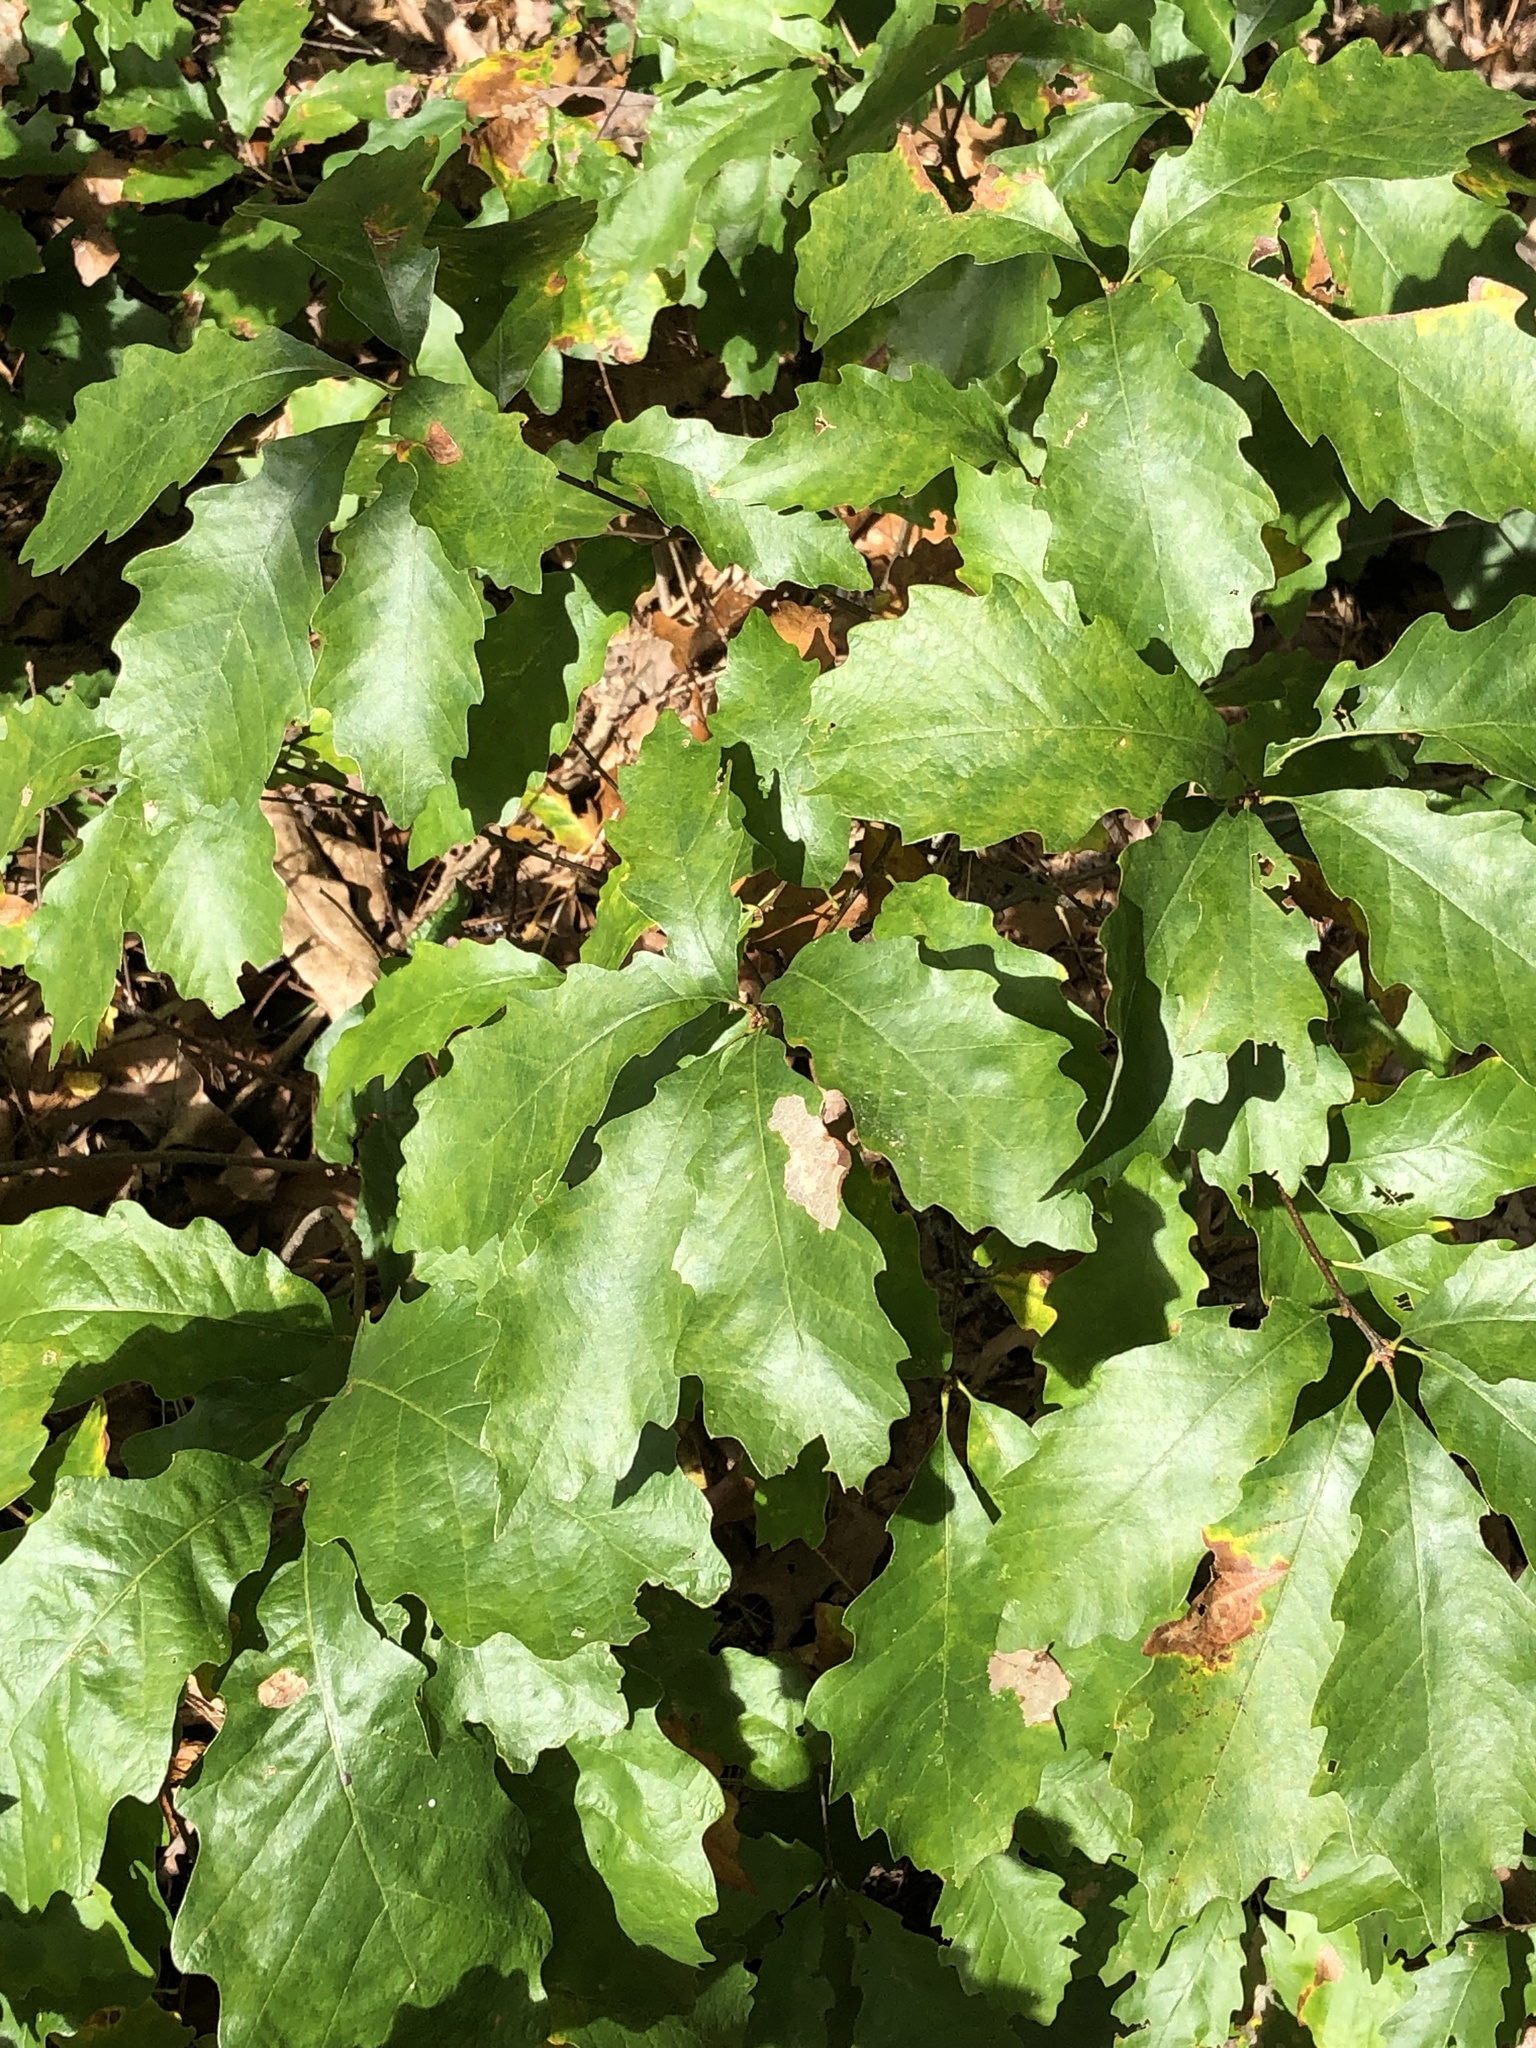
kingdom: Plantae
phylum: Tracheophyta
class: Magnoliopsida
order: Fagales
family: Fagaceae
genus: Quercus
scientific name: Quercus prinoides
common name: Dwarf chinkapin oak
